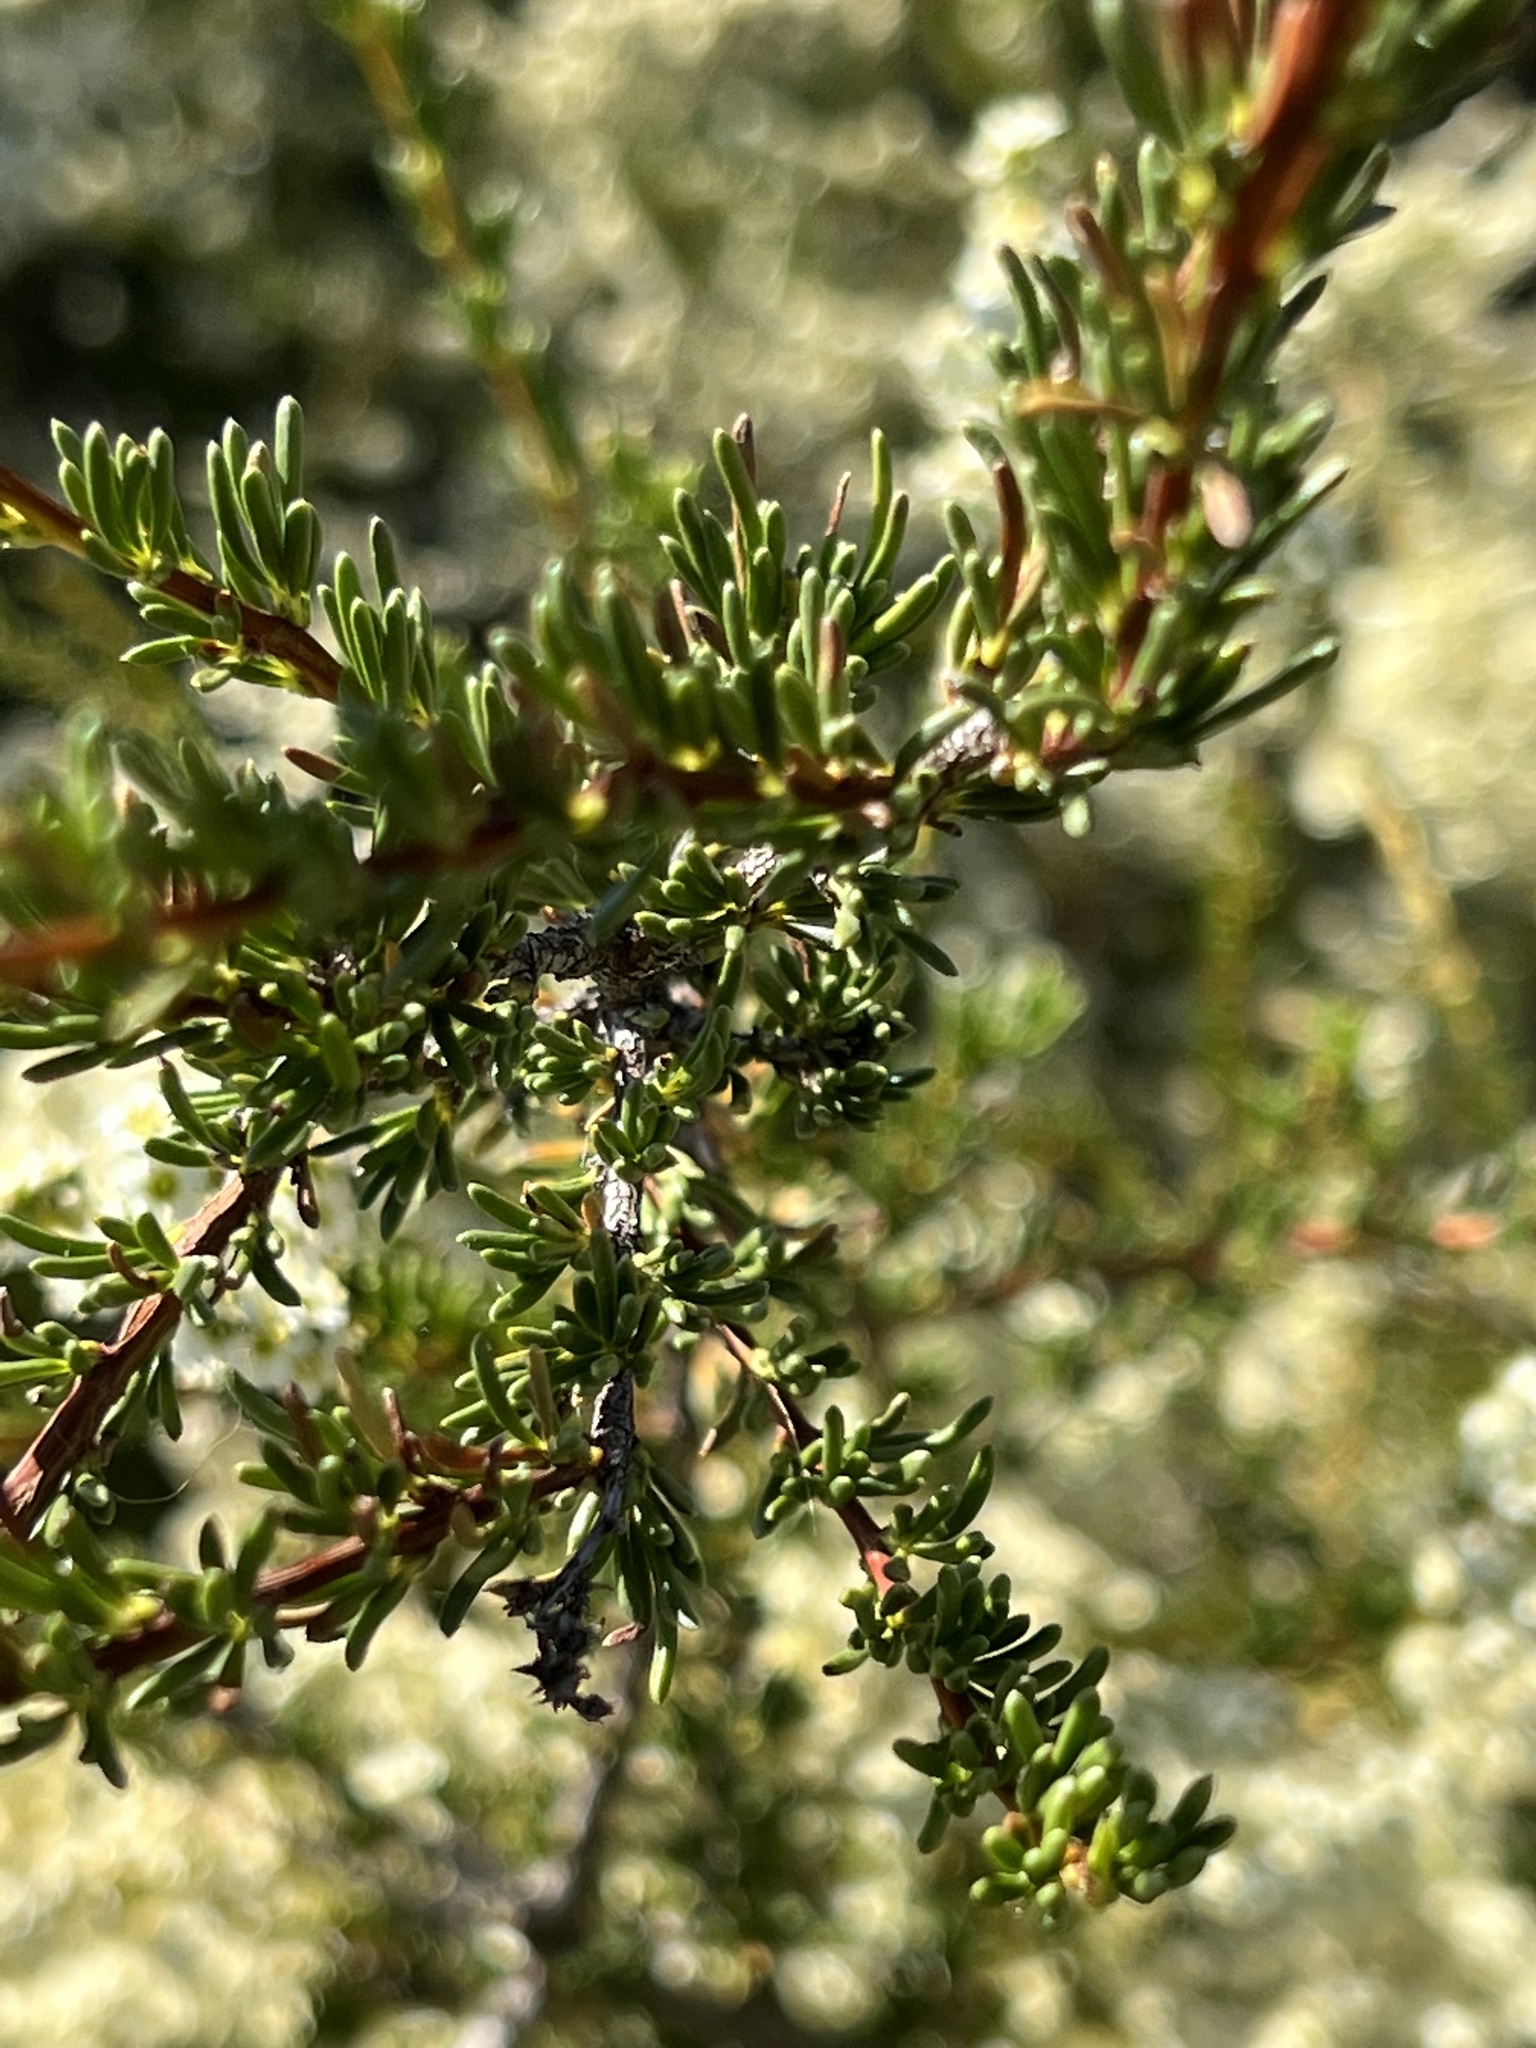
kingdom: Plantae
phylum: Tracheophyta
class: Magnoliopsida
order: Rosales
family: Rosaceae
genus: Adenostoma
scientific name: Adenostoma fasciculatum
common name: Chamise
